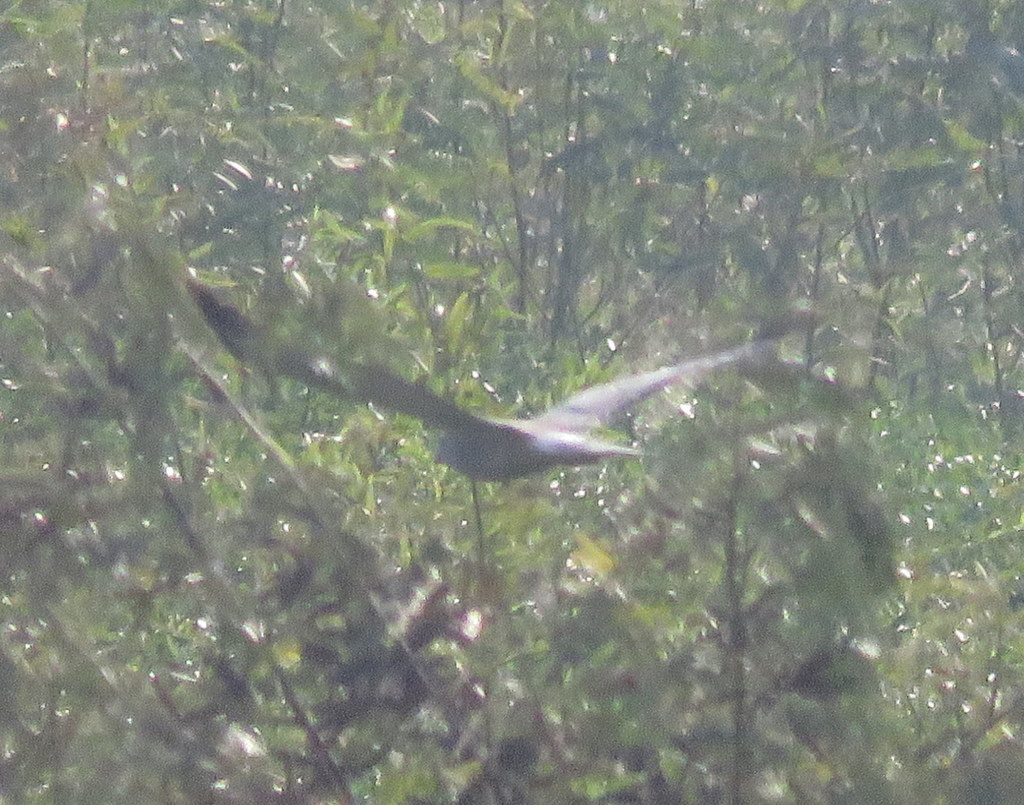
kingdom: Animalia
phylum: Chordata
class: Aves
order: Accipitriformes
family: Accipitridae
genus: Circus
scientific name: Circus cinereus
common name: Cinereous harrier
